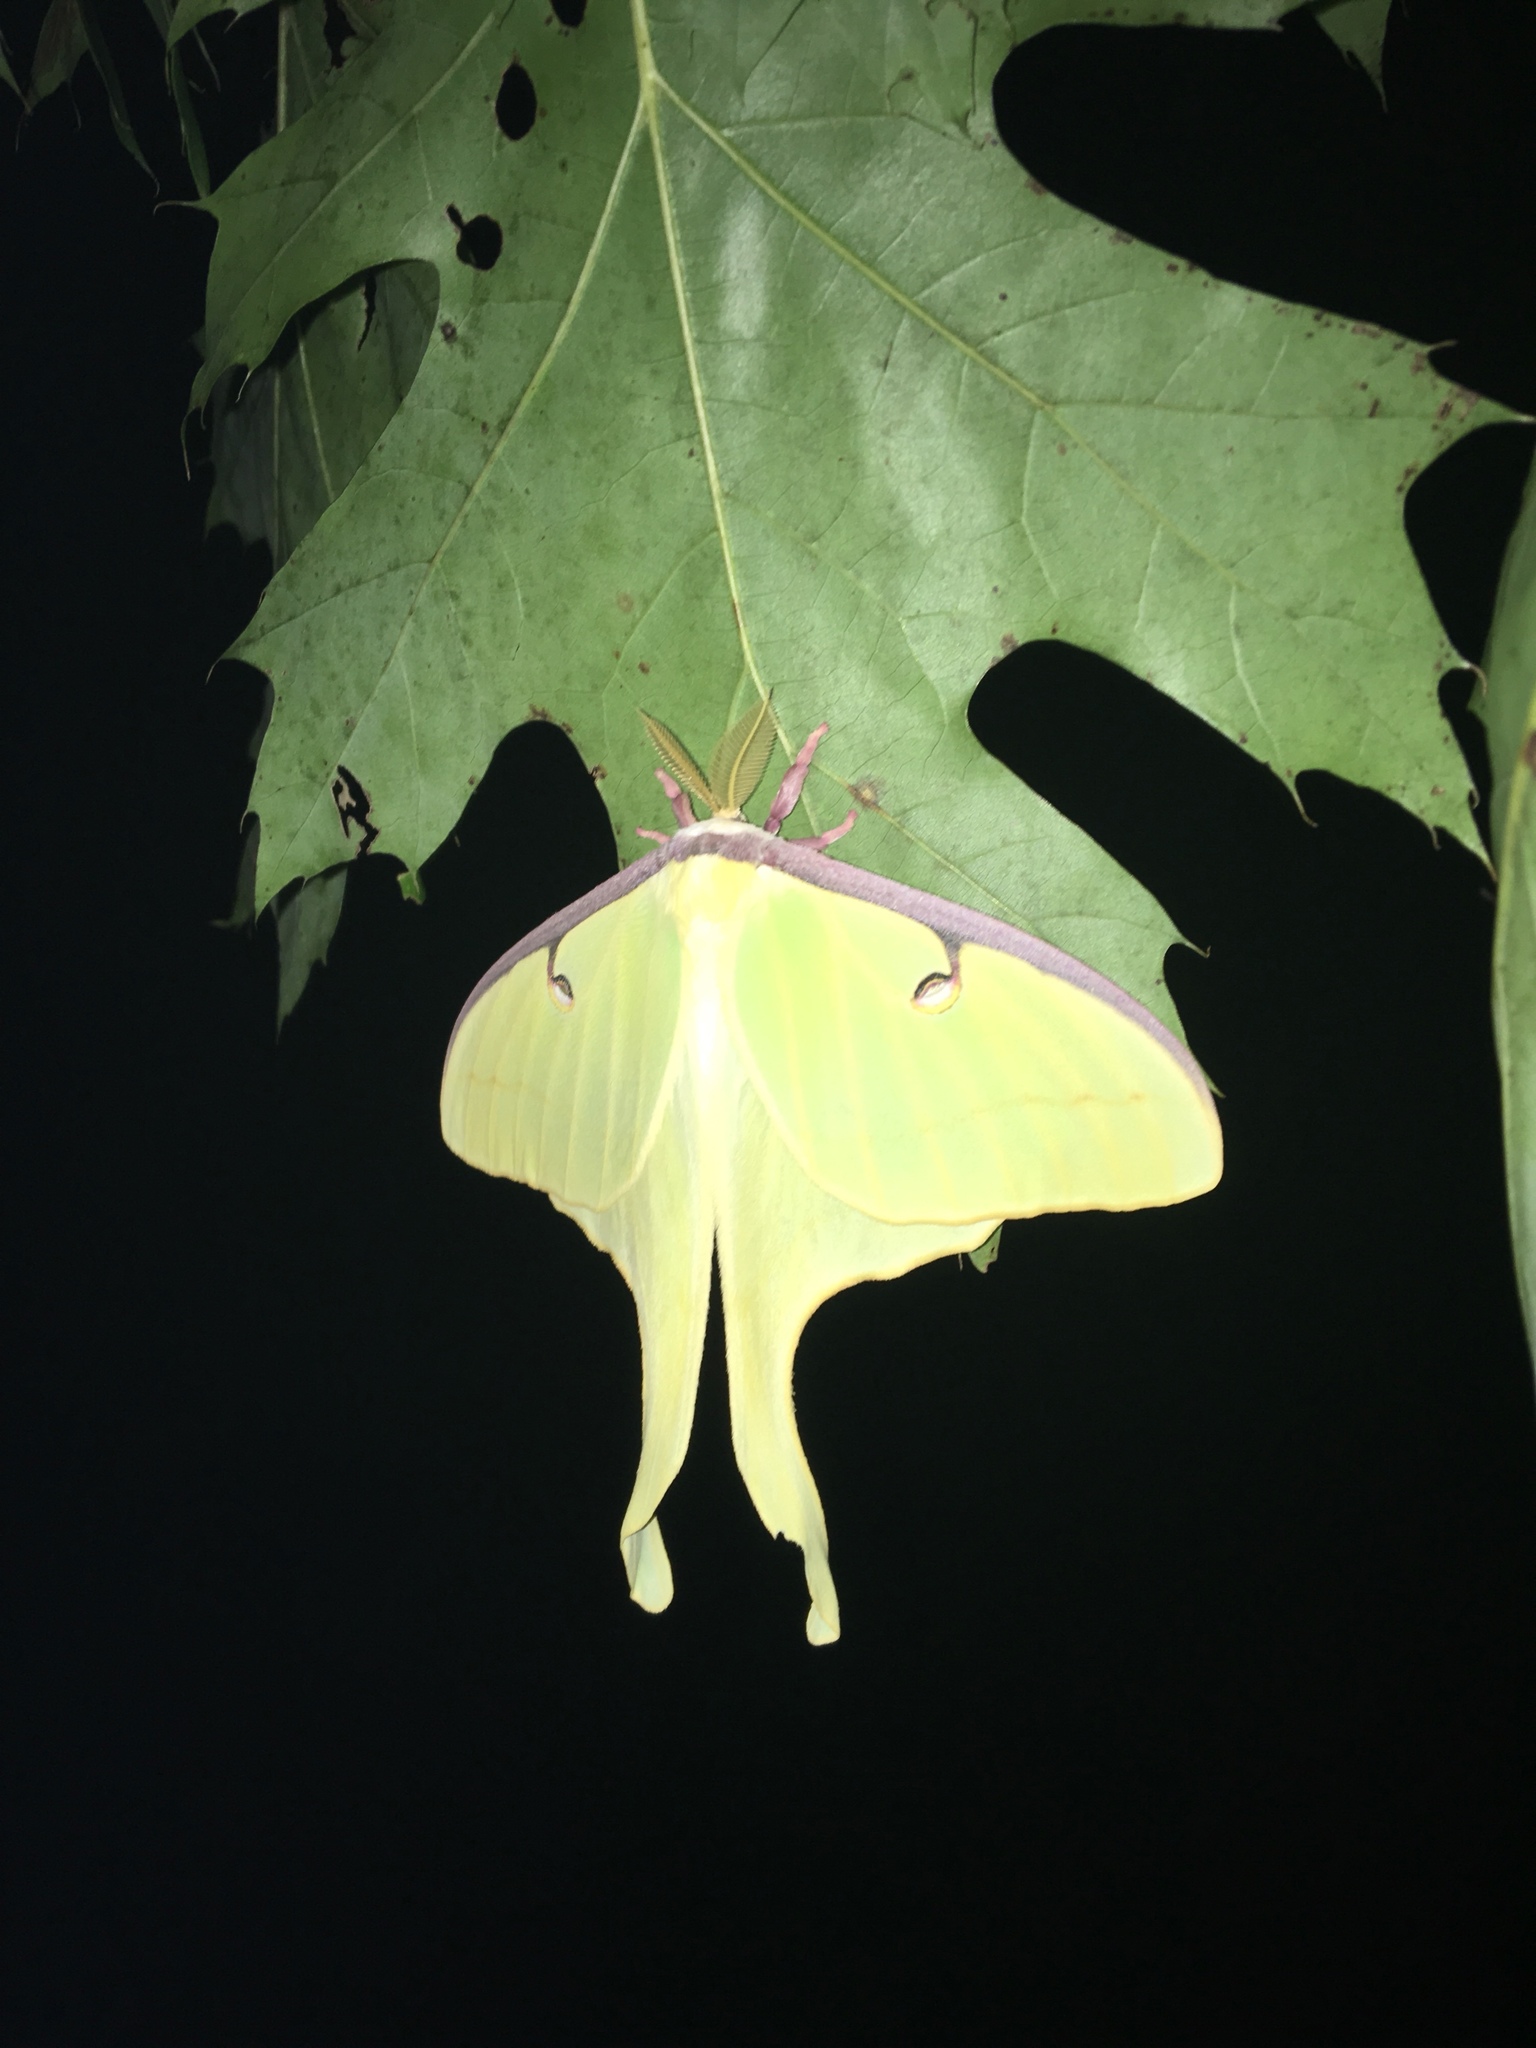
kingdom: Animalia
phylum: Arthropoda
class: Insecta
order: Lepidoptera
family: Saturniidae
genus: Actias
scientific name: Actias luna
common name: Luna moth
